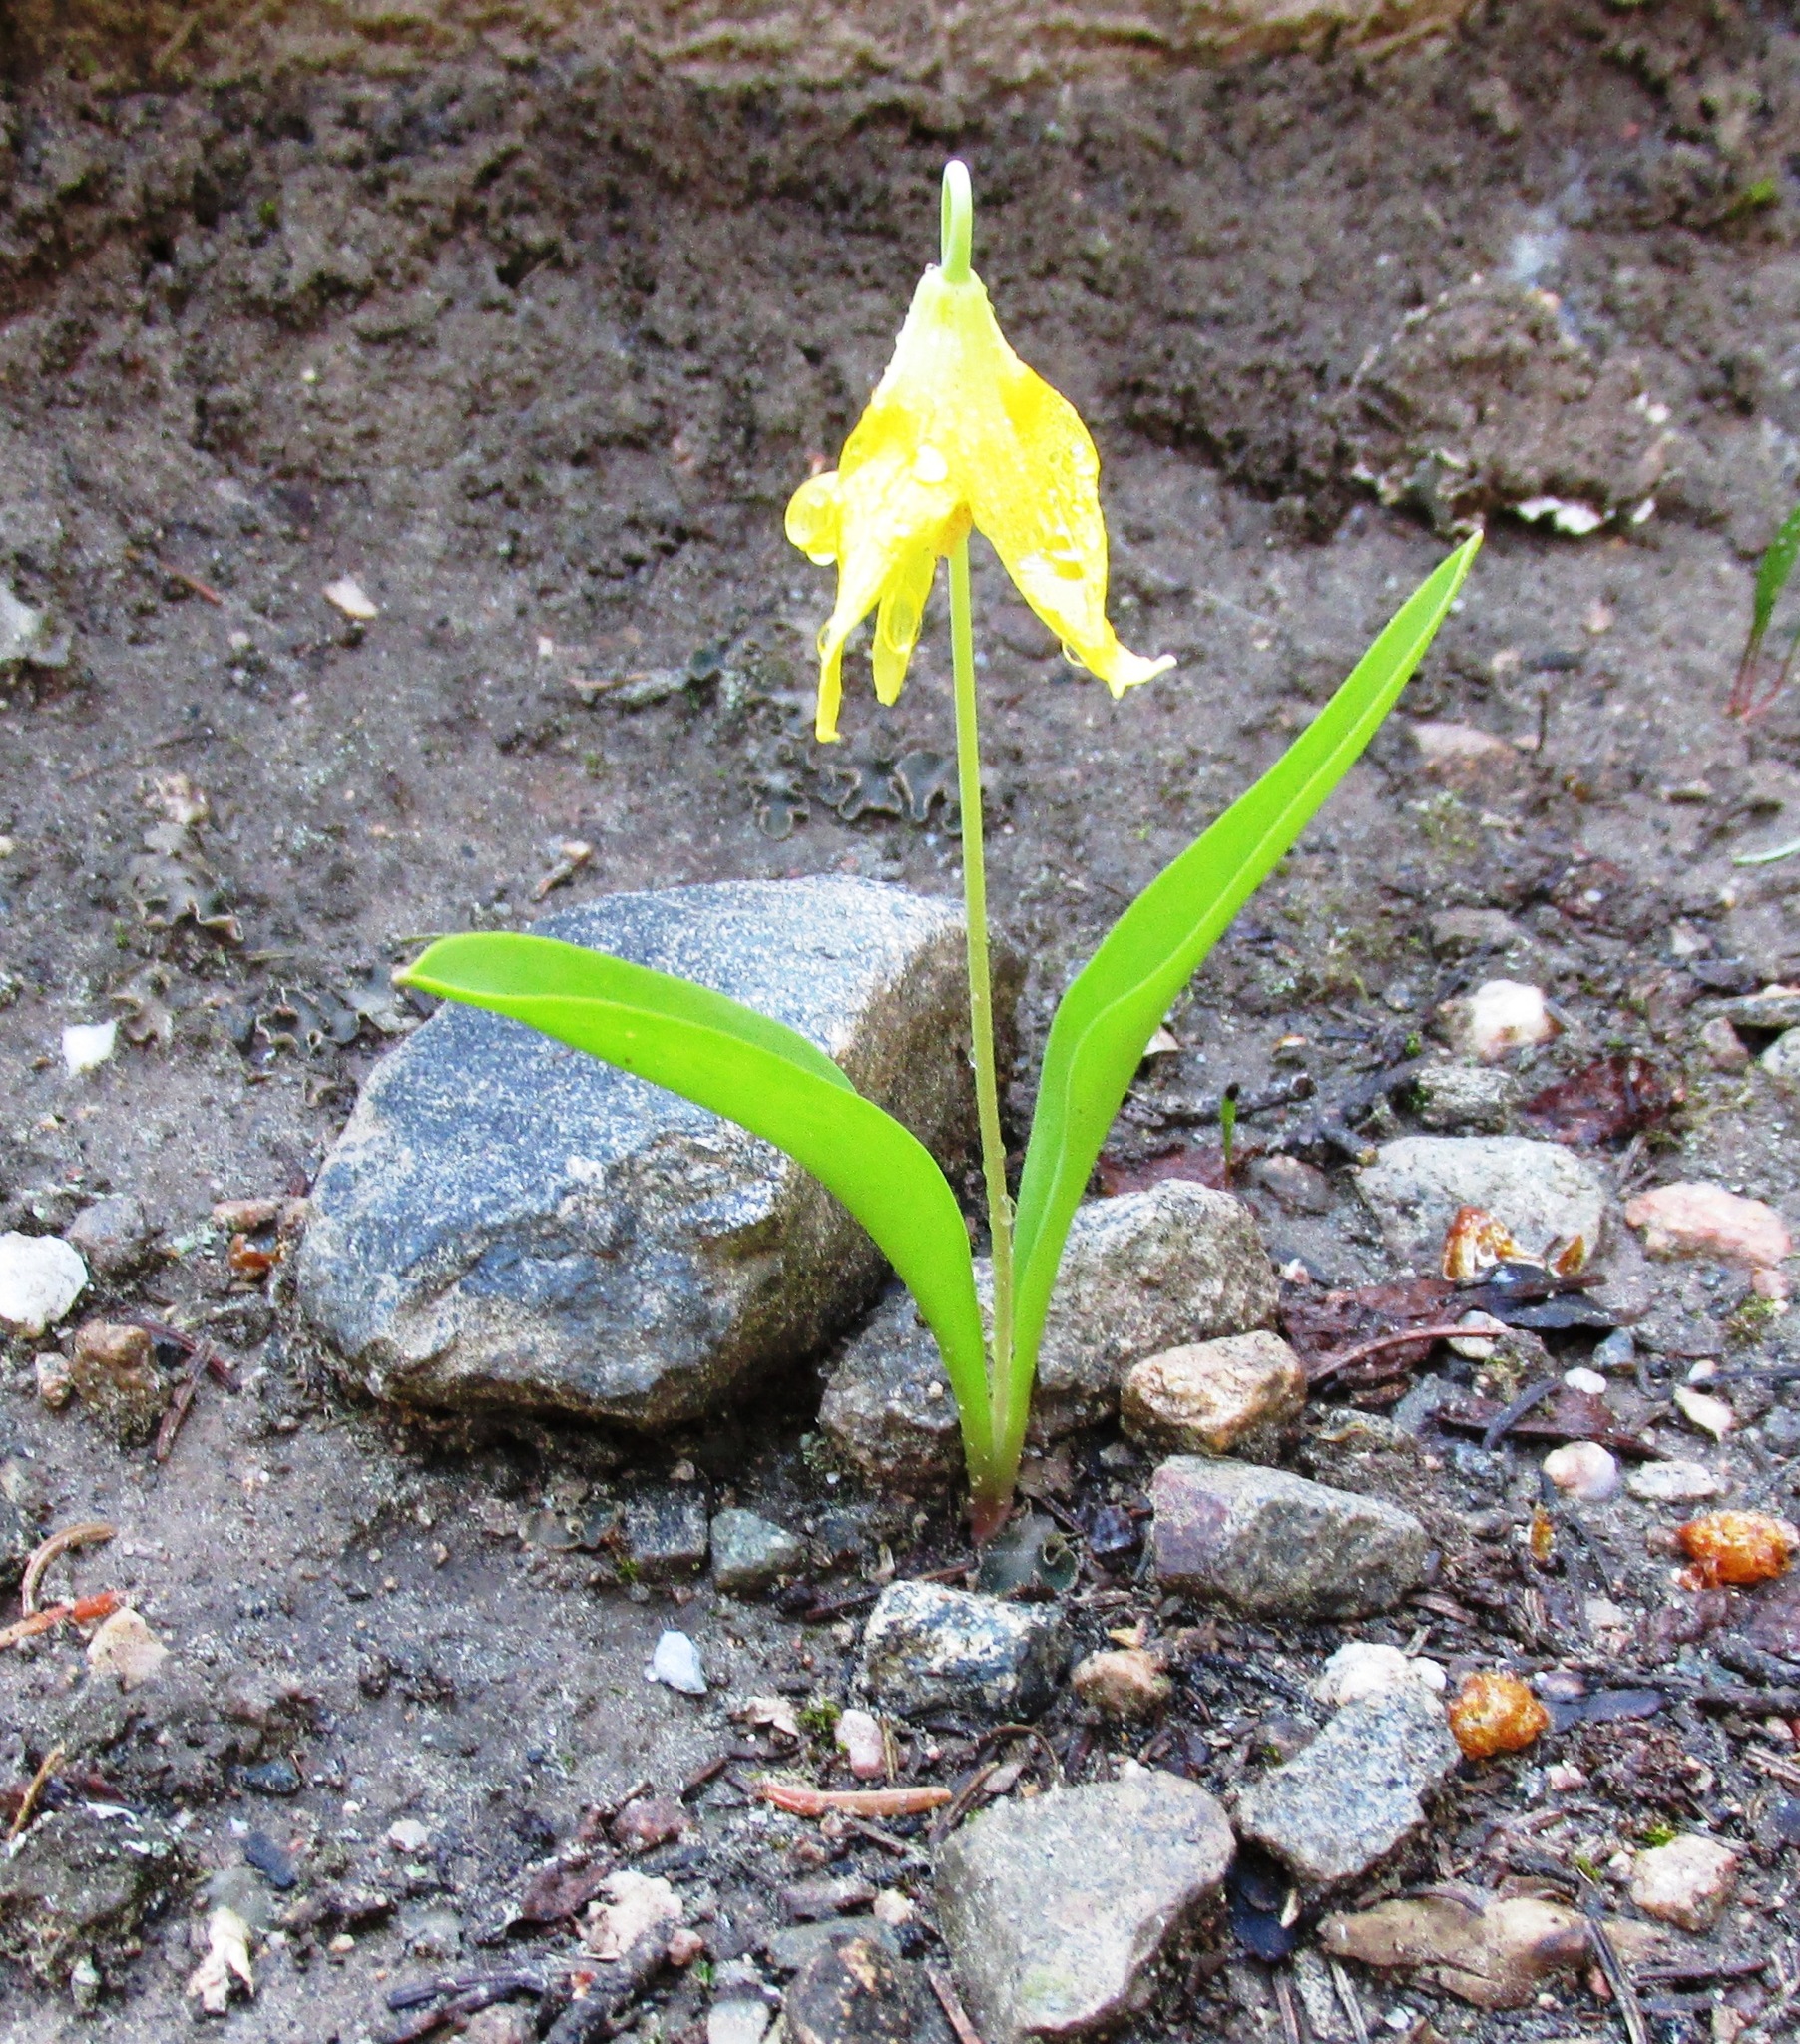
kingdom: Plantae
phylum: Tracheophyta
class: Liliopsida
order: Liliales
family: Liliaceae
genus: Erythronium
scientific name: Erythronium grandiflorum
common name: Avalanche-lily
